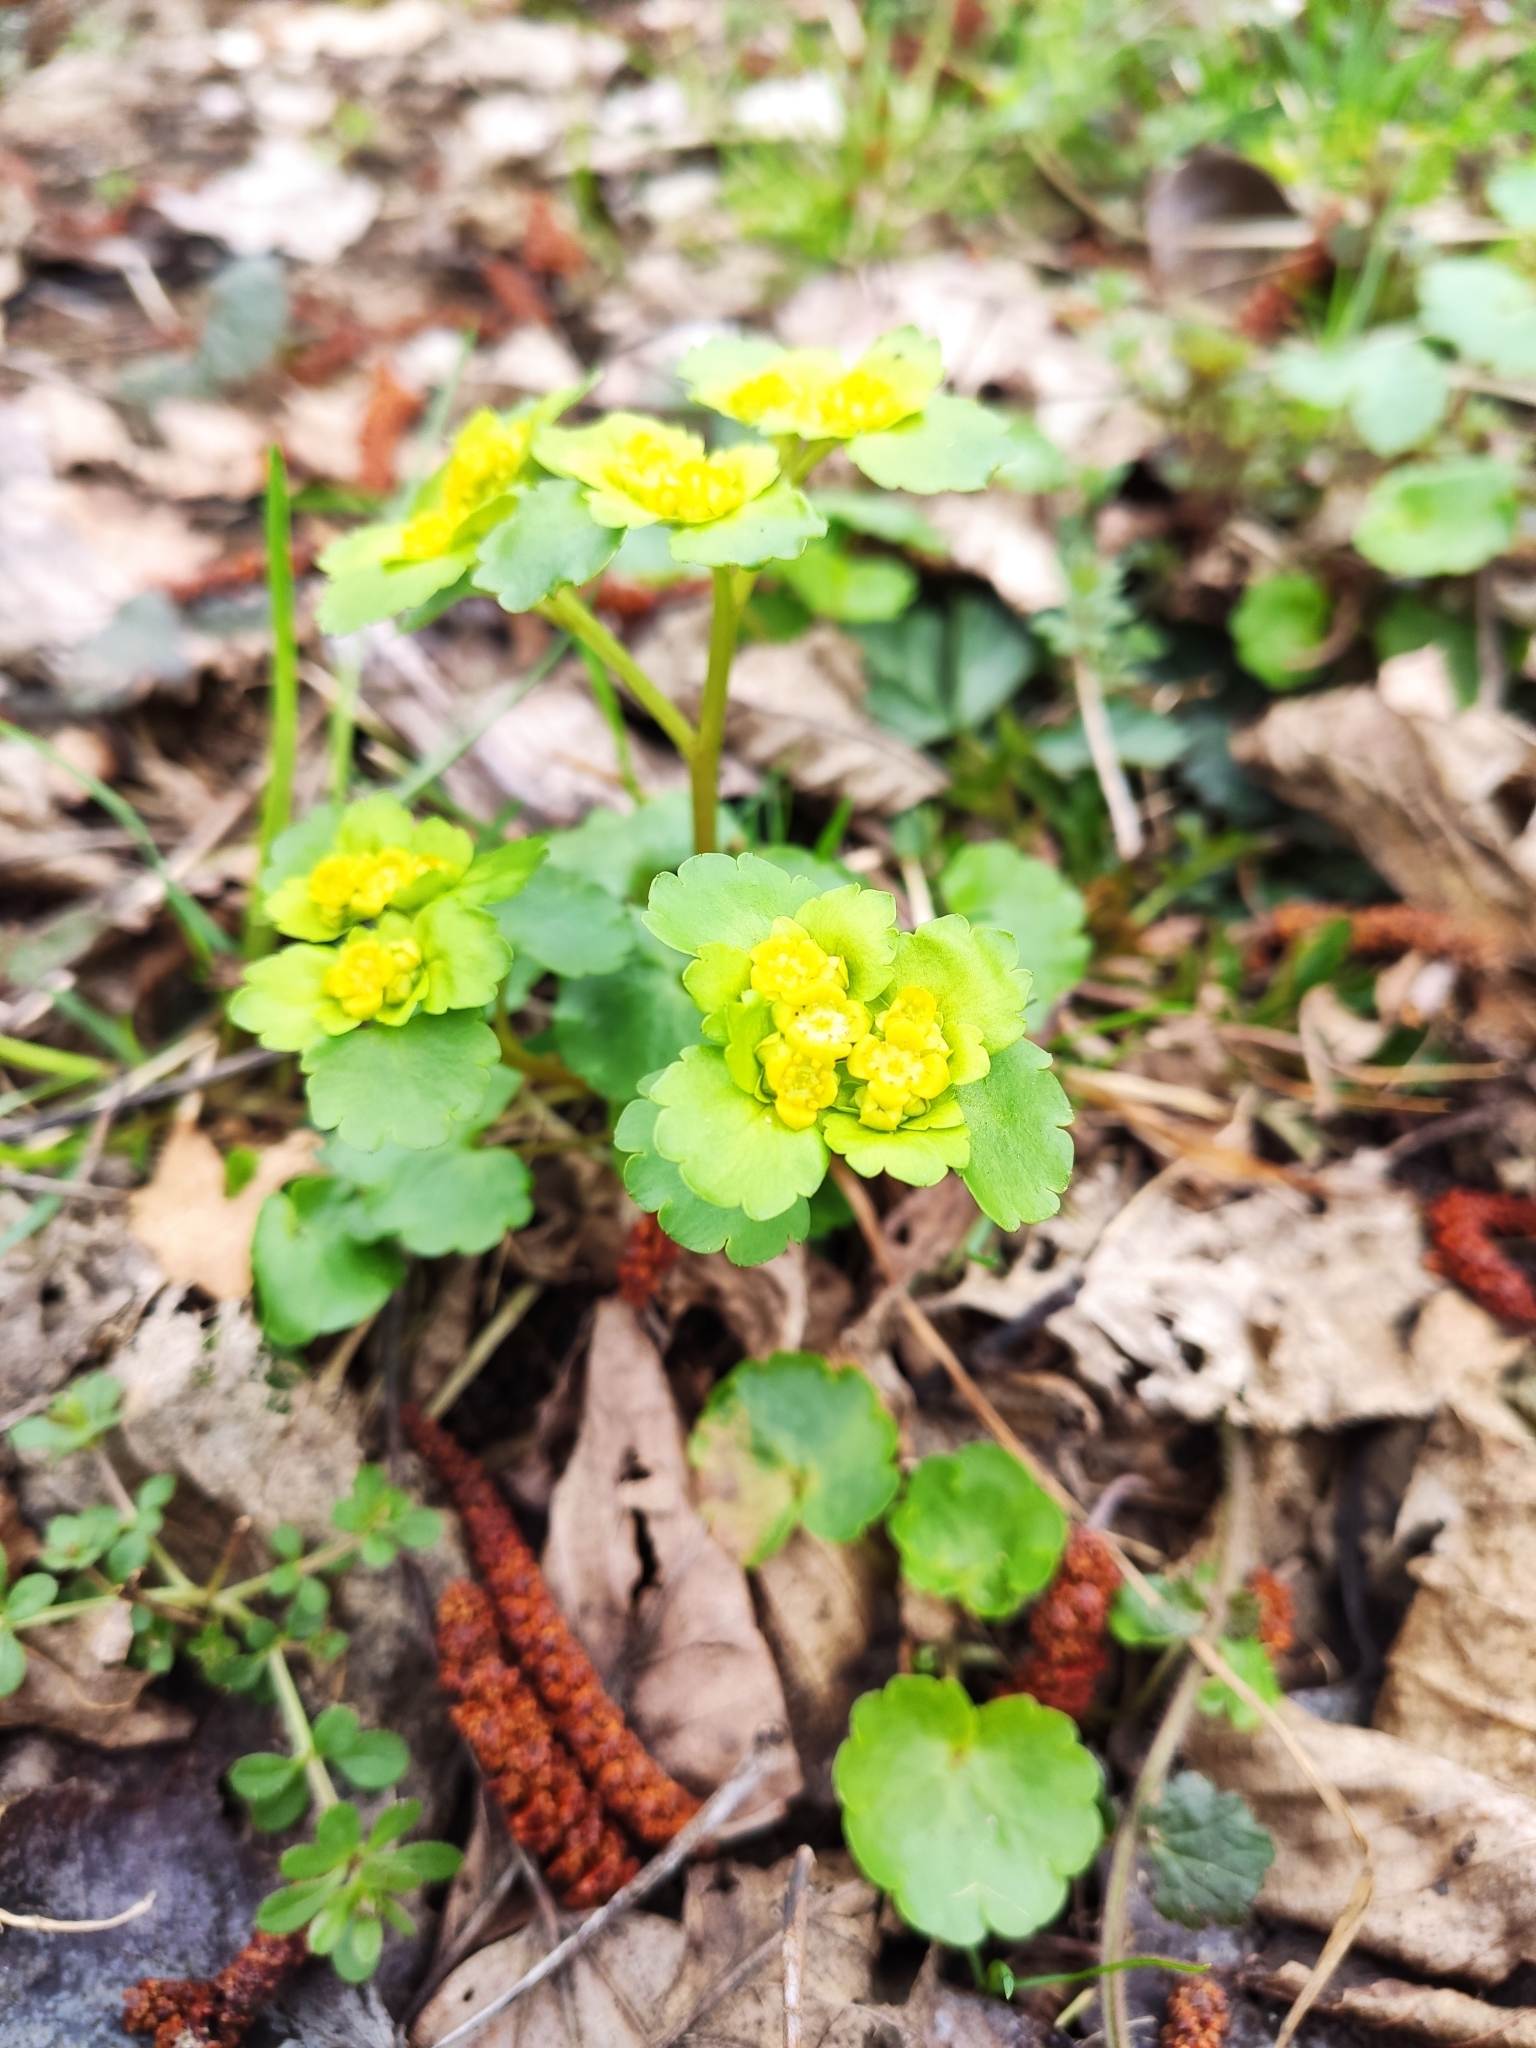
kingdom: Plantae
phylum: Tracheophyta
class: Magnoliopsida
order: Saxifragales
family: Saxifragaceae
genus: Chrysosplenium
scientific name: Chrysosplenium alternifolium
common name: Alternate-leaved golden-saxifrage
